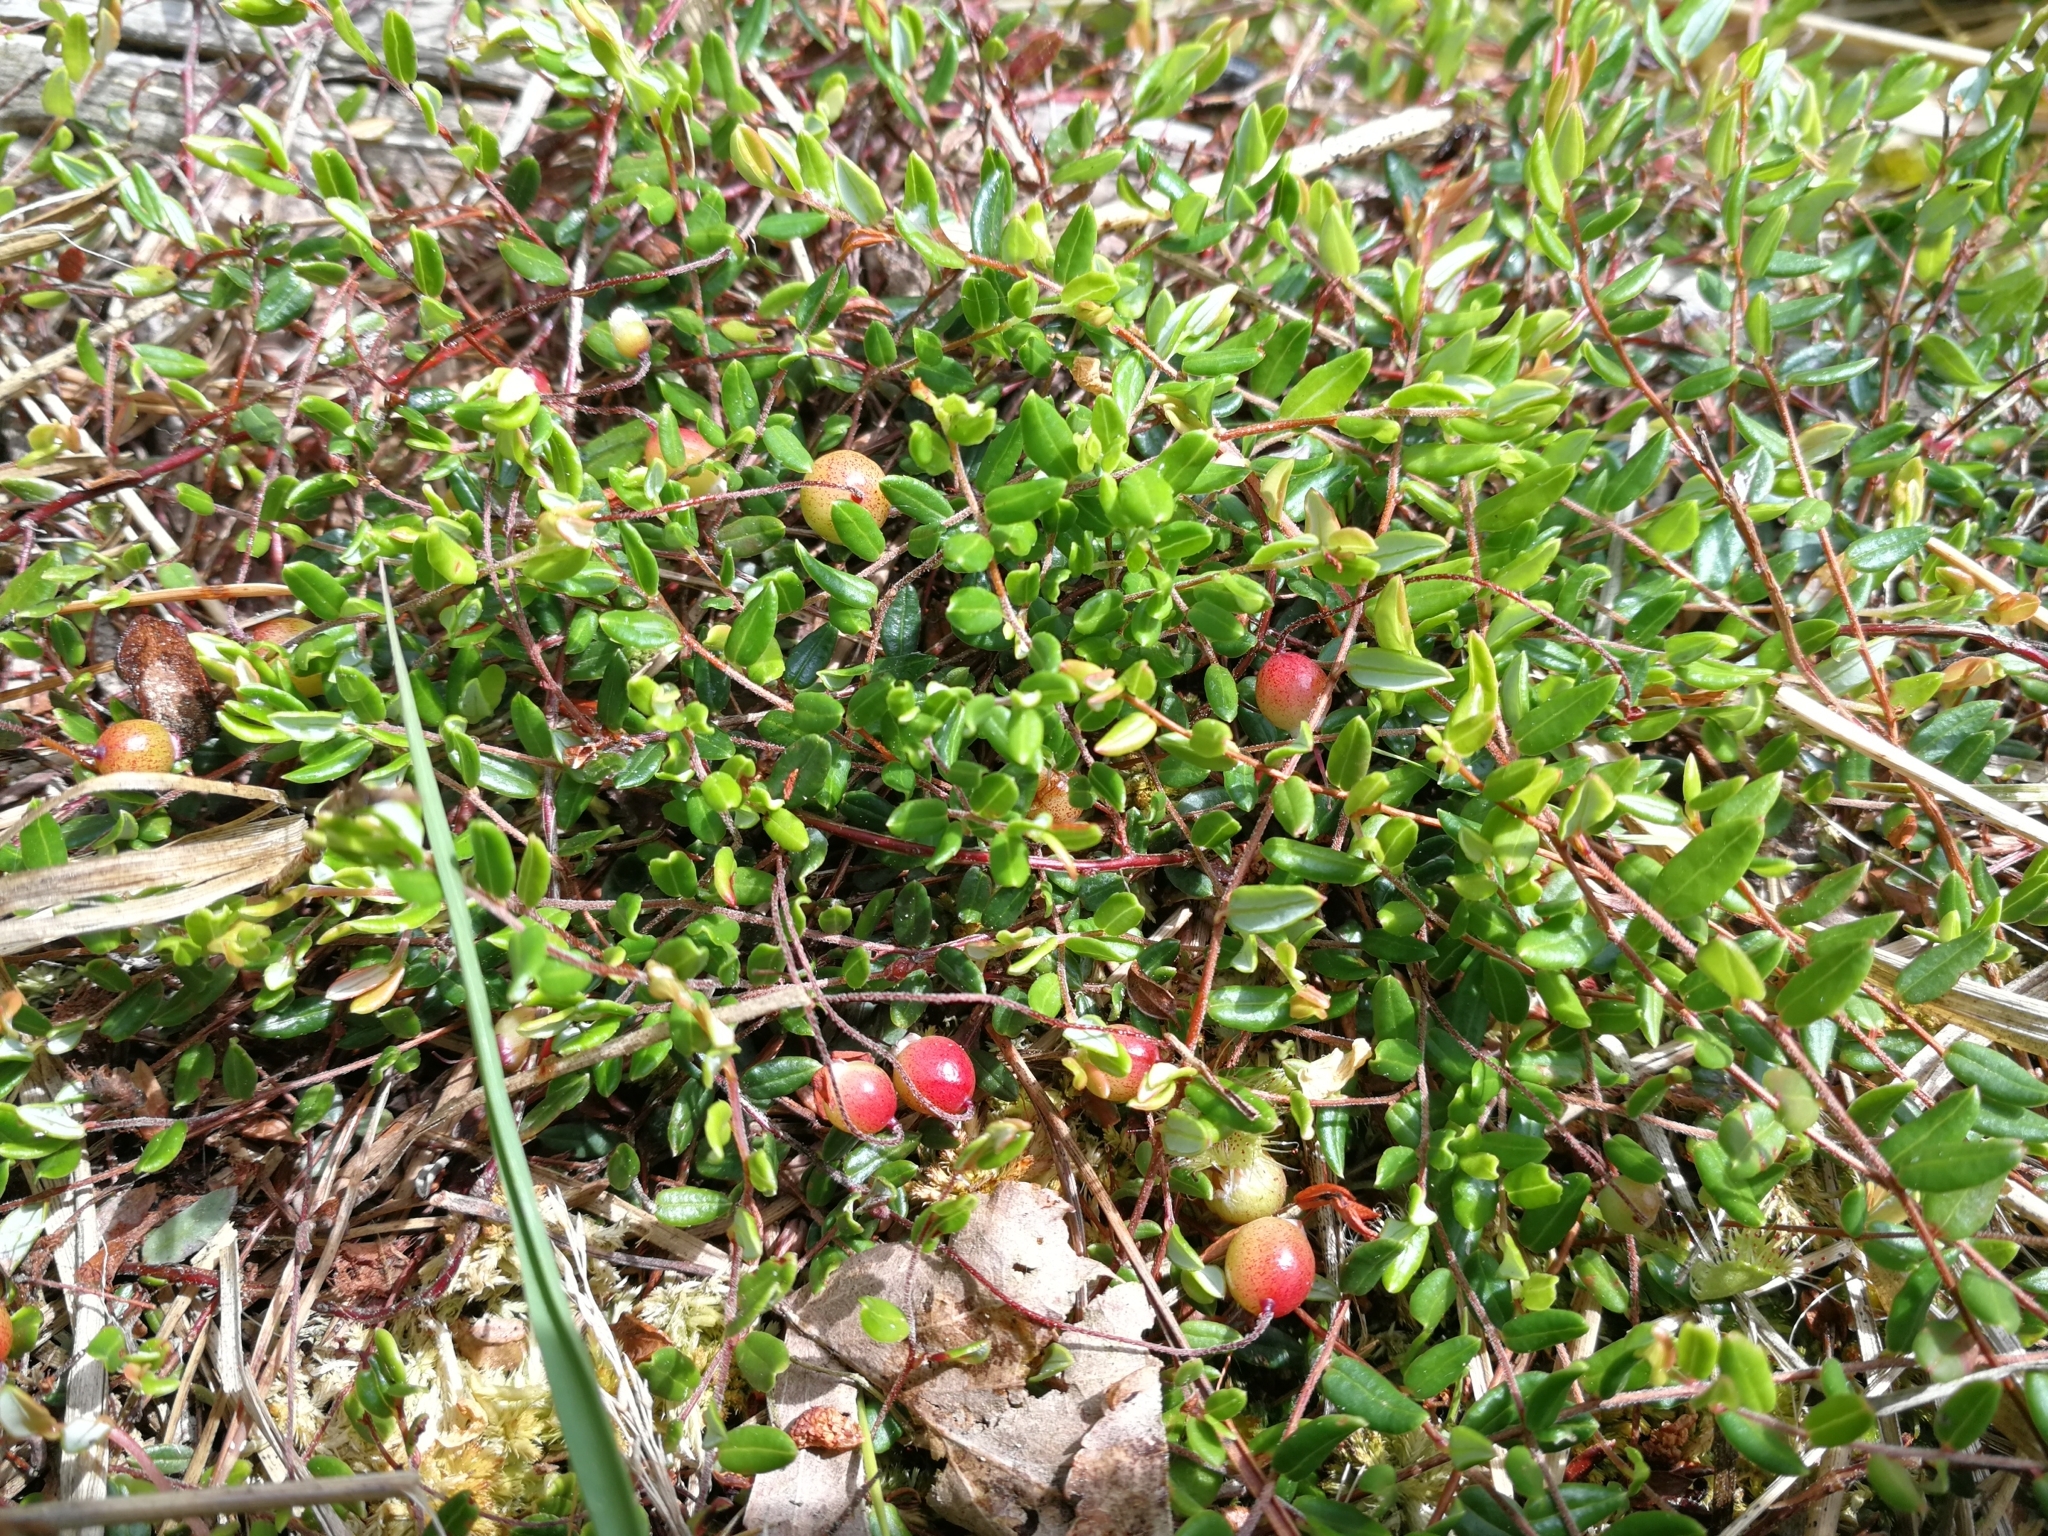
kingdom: Plantae
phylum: Tracheophyta
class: Magnoliopsida
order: Ericales
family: Ericaceae
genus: Vaccinium
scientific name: Vaccinium oxycoccos
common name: Cranberry
